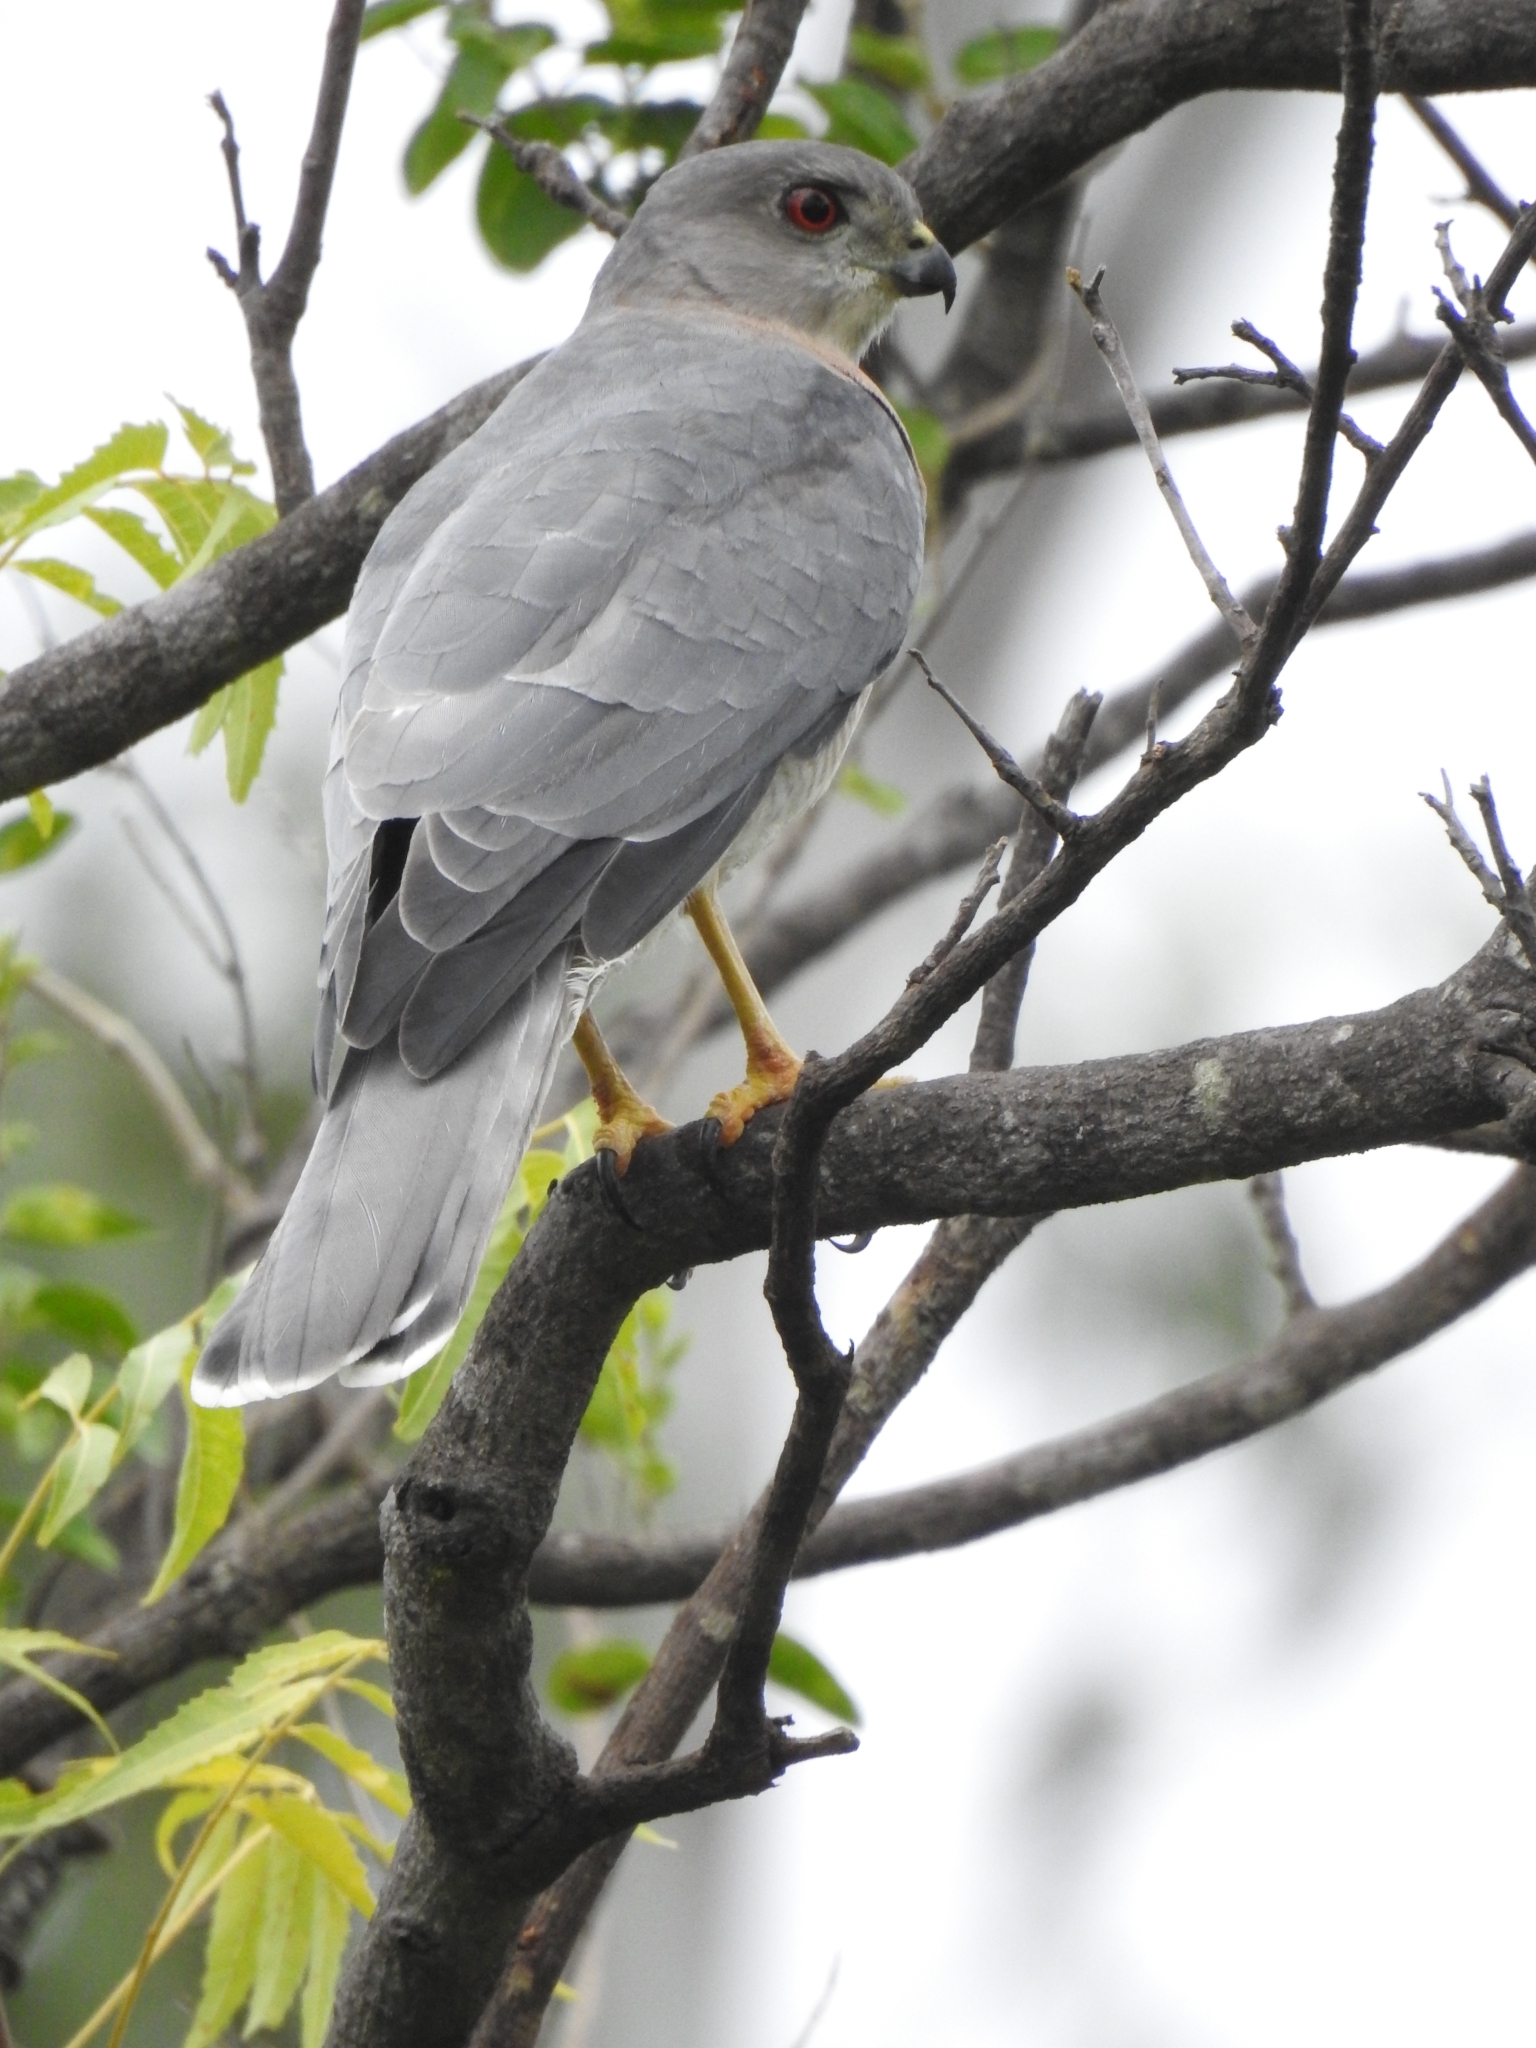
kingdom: Animalia
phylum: Chordata
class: Aves
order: Accipitriformes
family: Accipitridae
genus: Accipiter
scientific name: Accipiter badius
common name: Shikra
